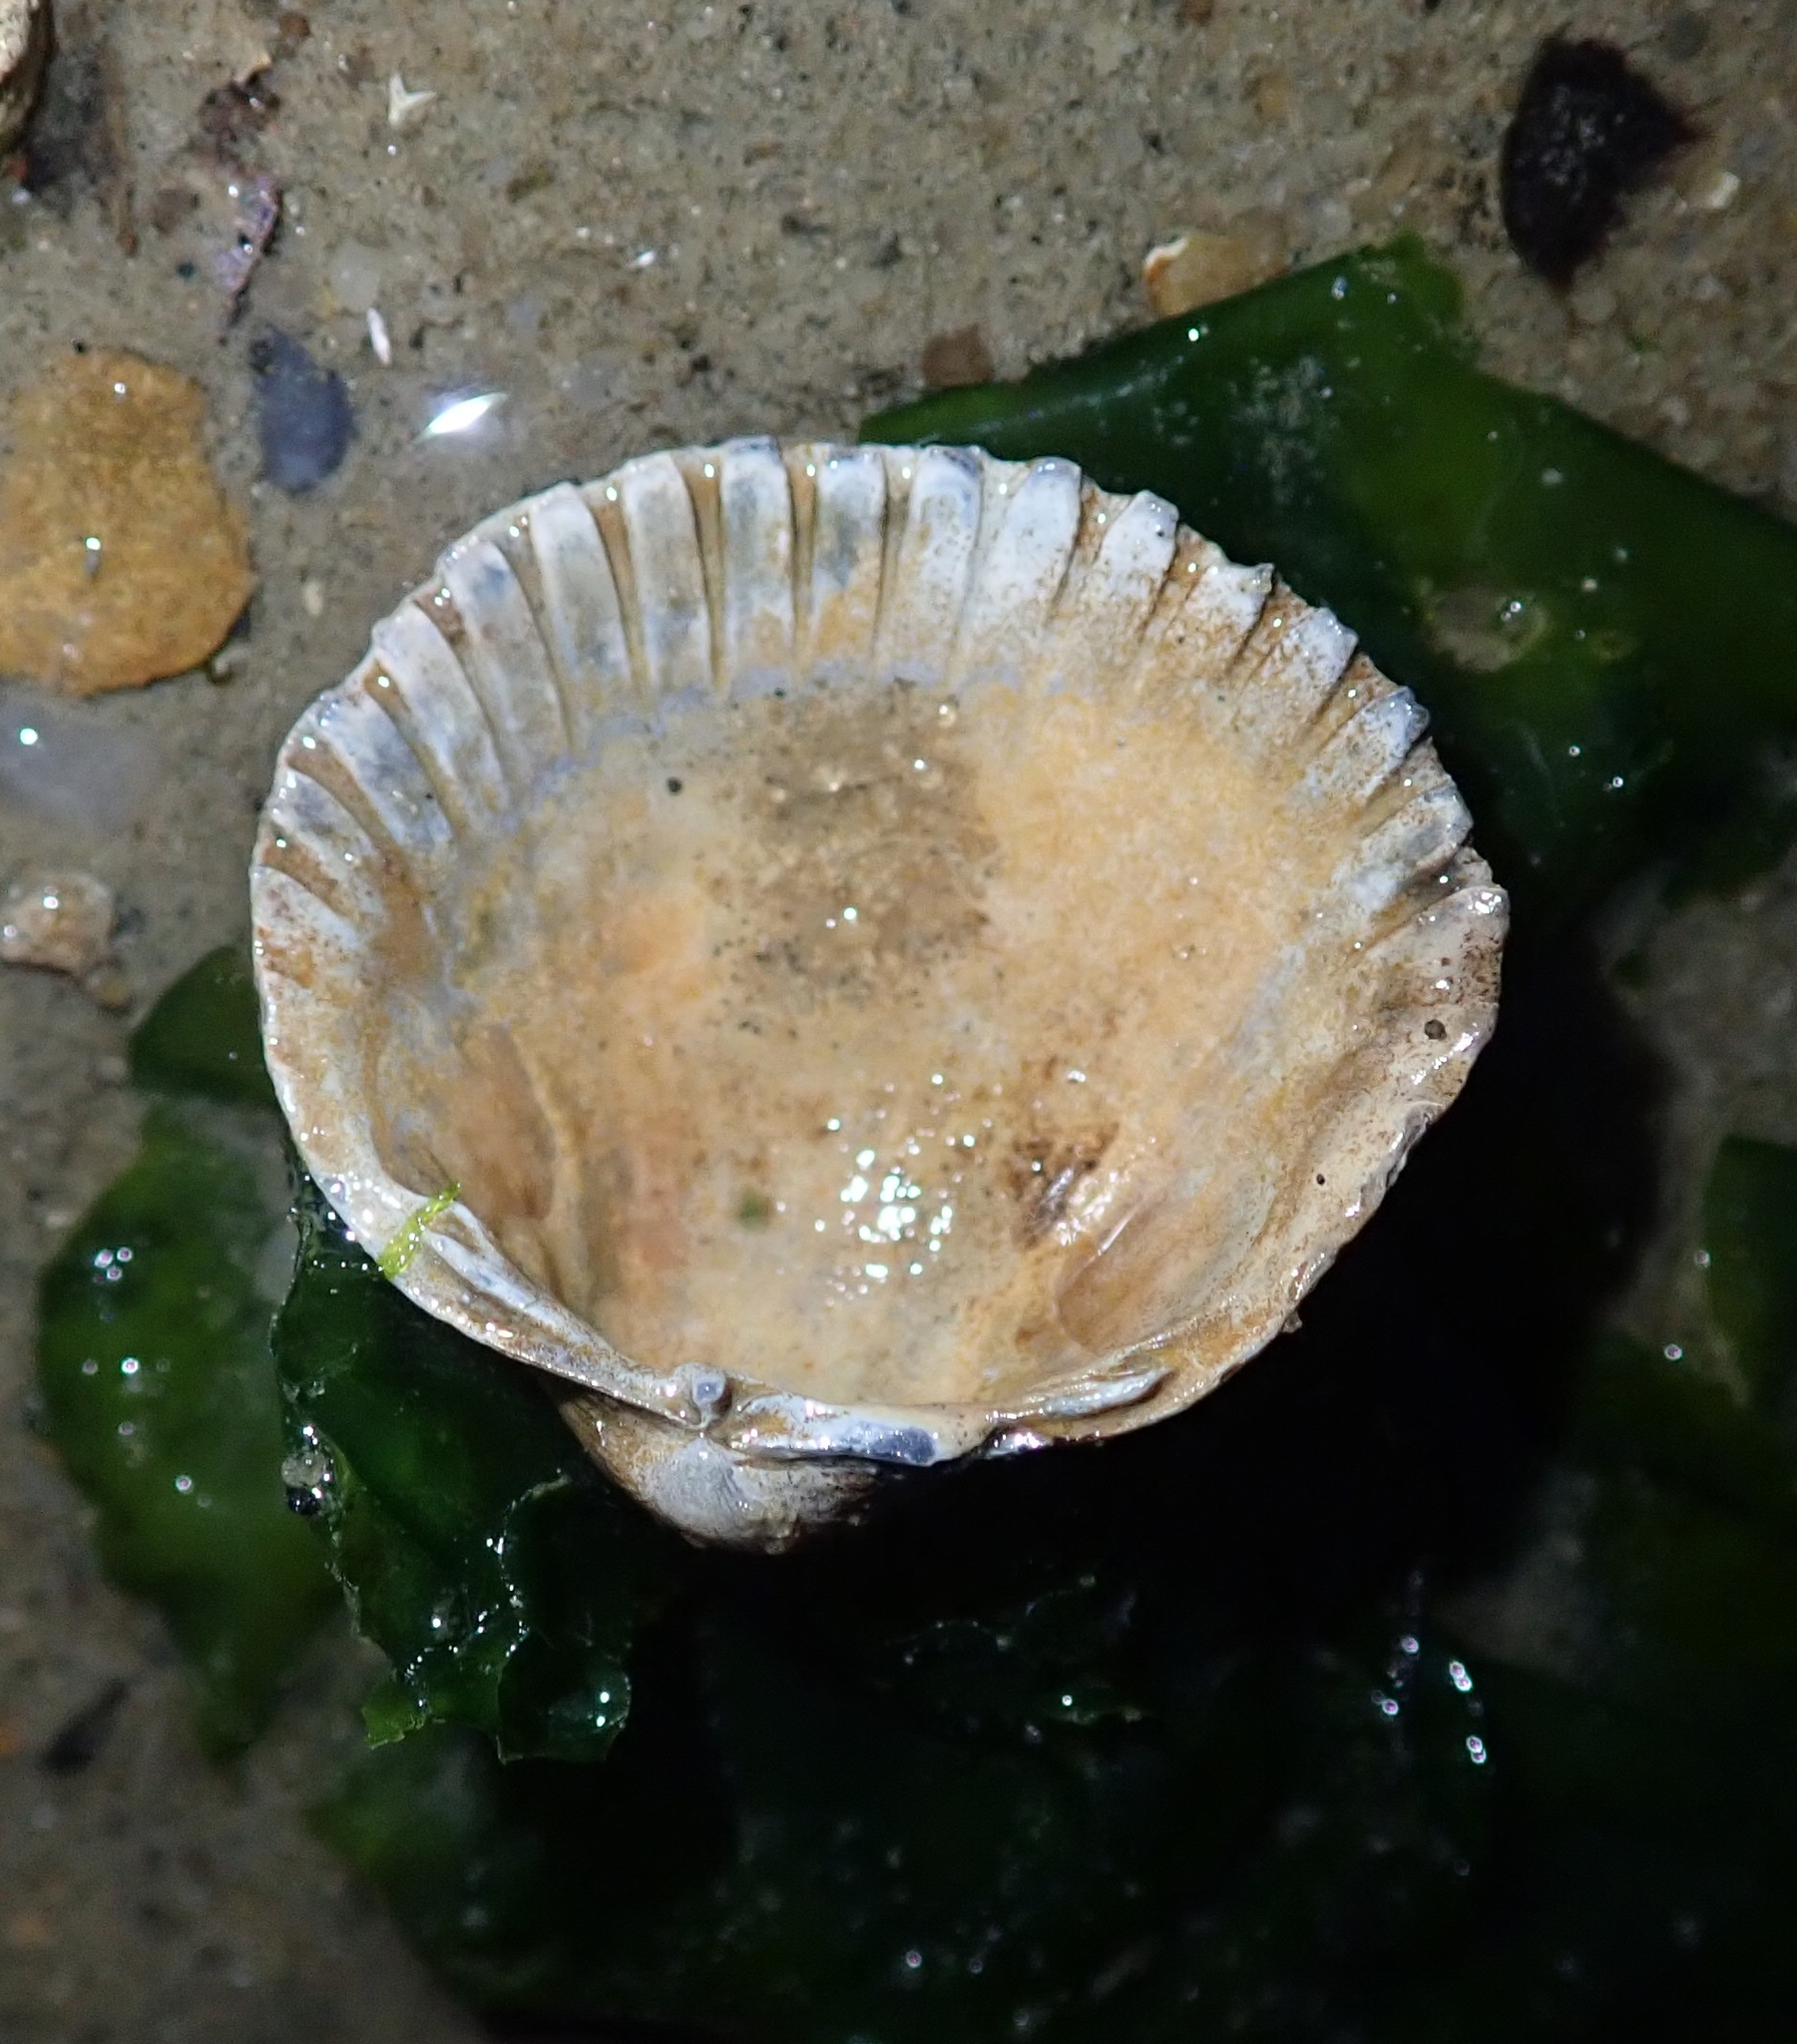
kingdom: Animalia
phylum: Mollusca
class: Bivalvia
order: Cardiida
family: Cardiidae
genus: Cerastoderma
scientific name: Cerastoderma edule
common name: Common cockle
